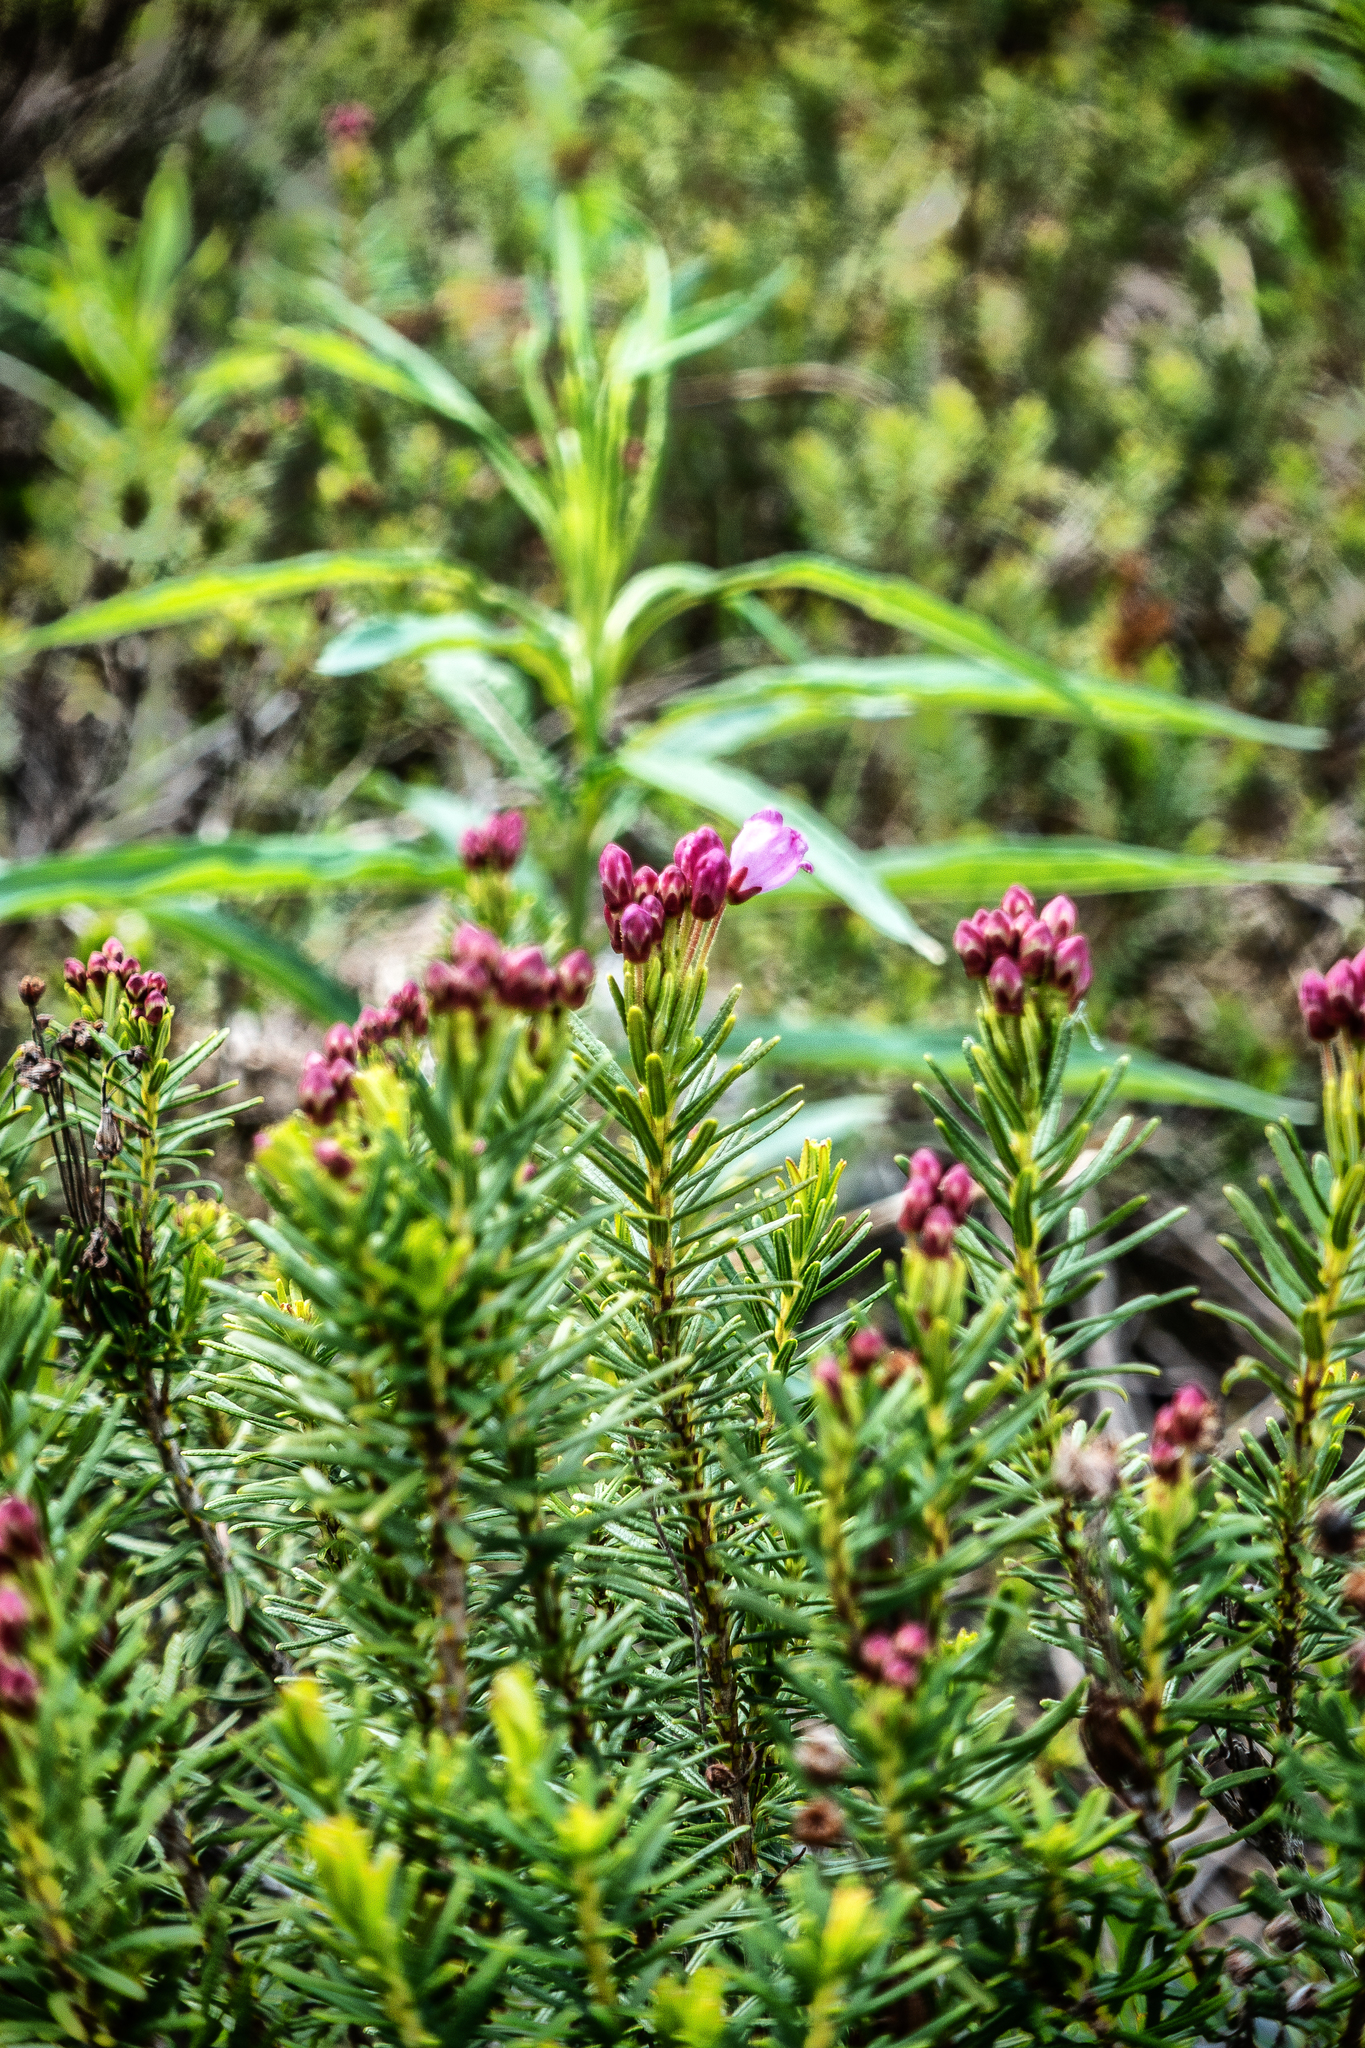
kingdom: Plantae
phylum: Tracheophyta
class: Magnoliopsida
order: Ericales
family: Ericaceae
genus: Phyllodoce
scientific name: Phyllodoce empetriformis
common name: Pink mountain heather
